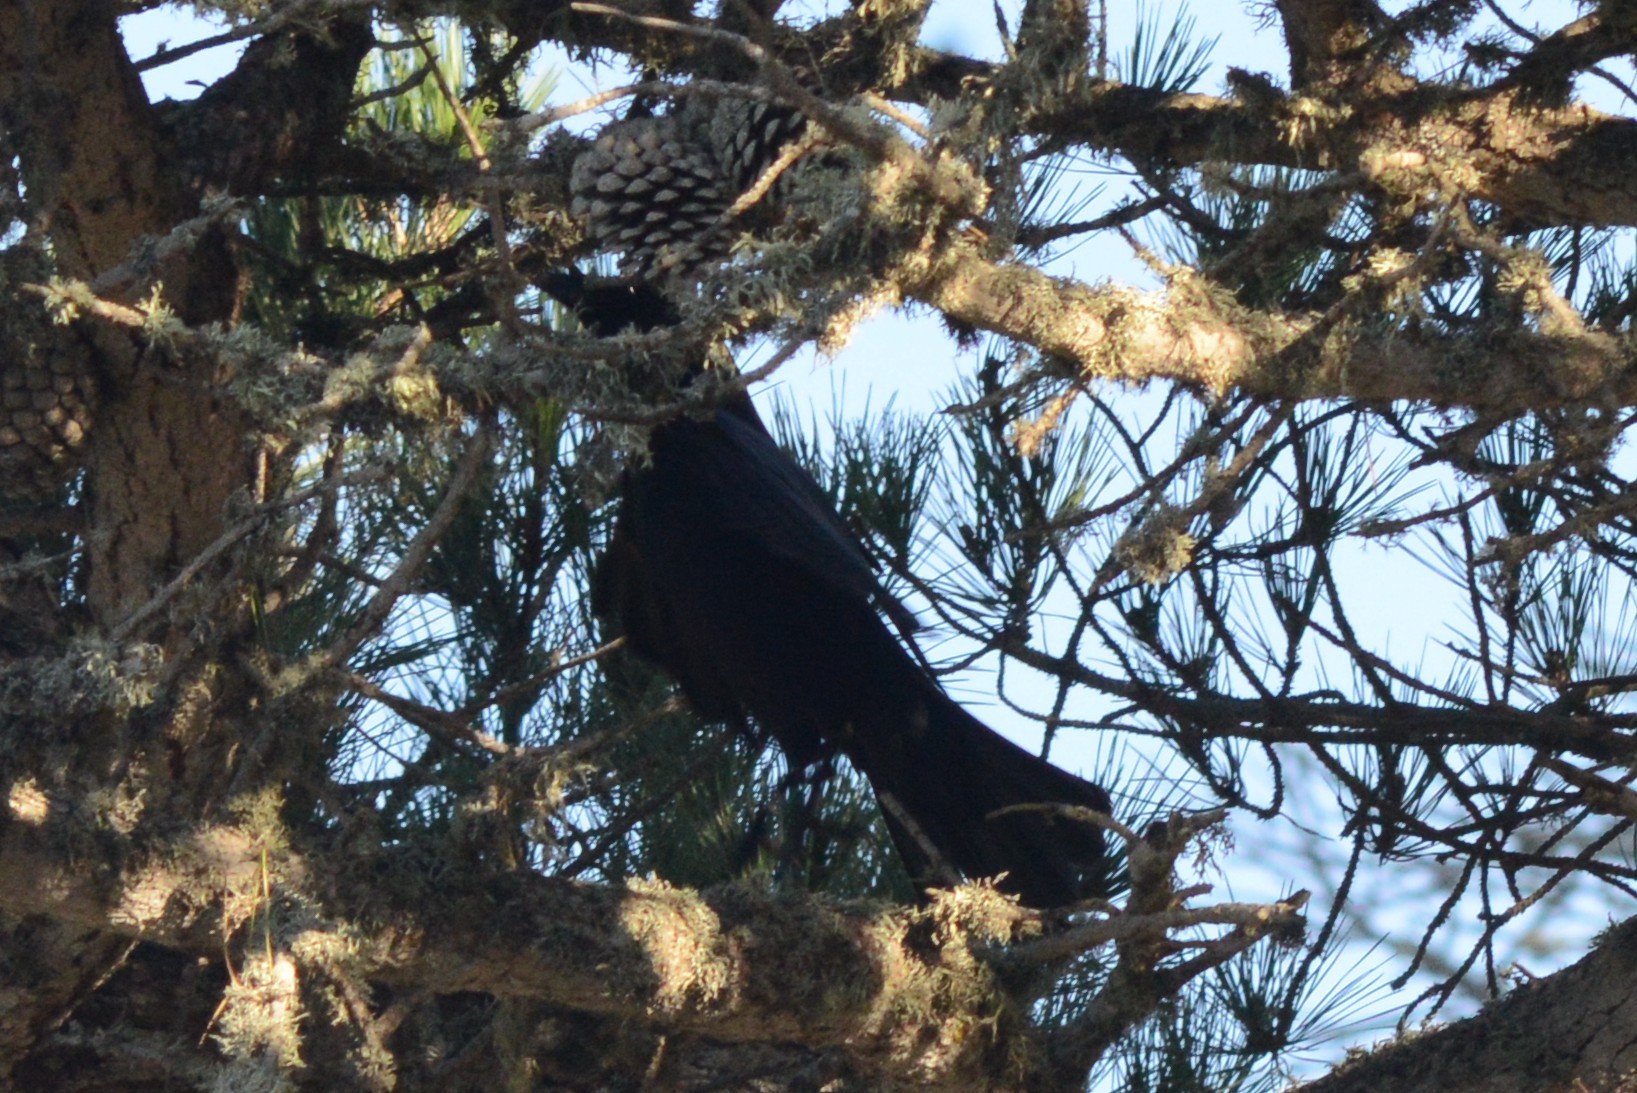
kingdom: Animalia
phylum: Chordata
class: Aves
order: Passeriformes
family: Corvidae
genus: Corvus
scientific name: Corvus brachyrhynchos
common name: American crow
